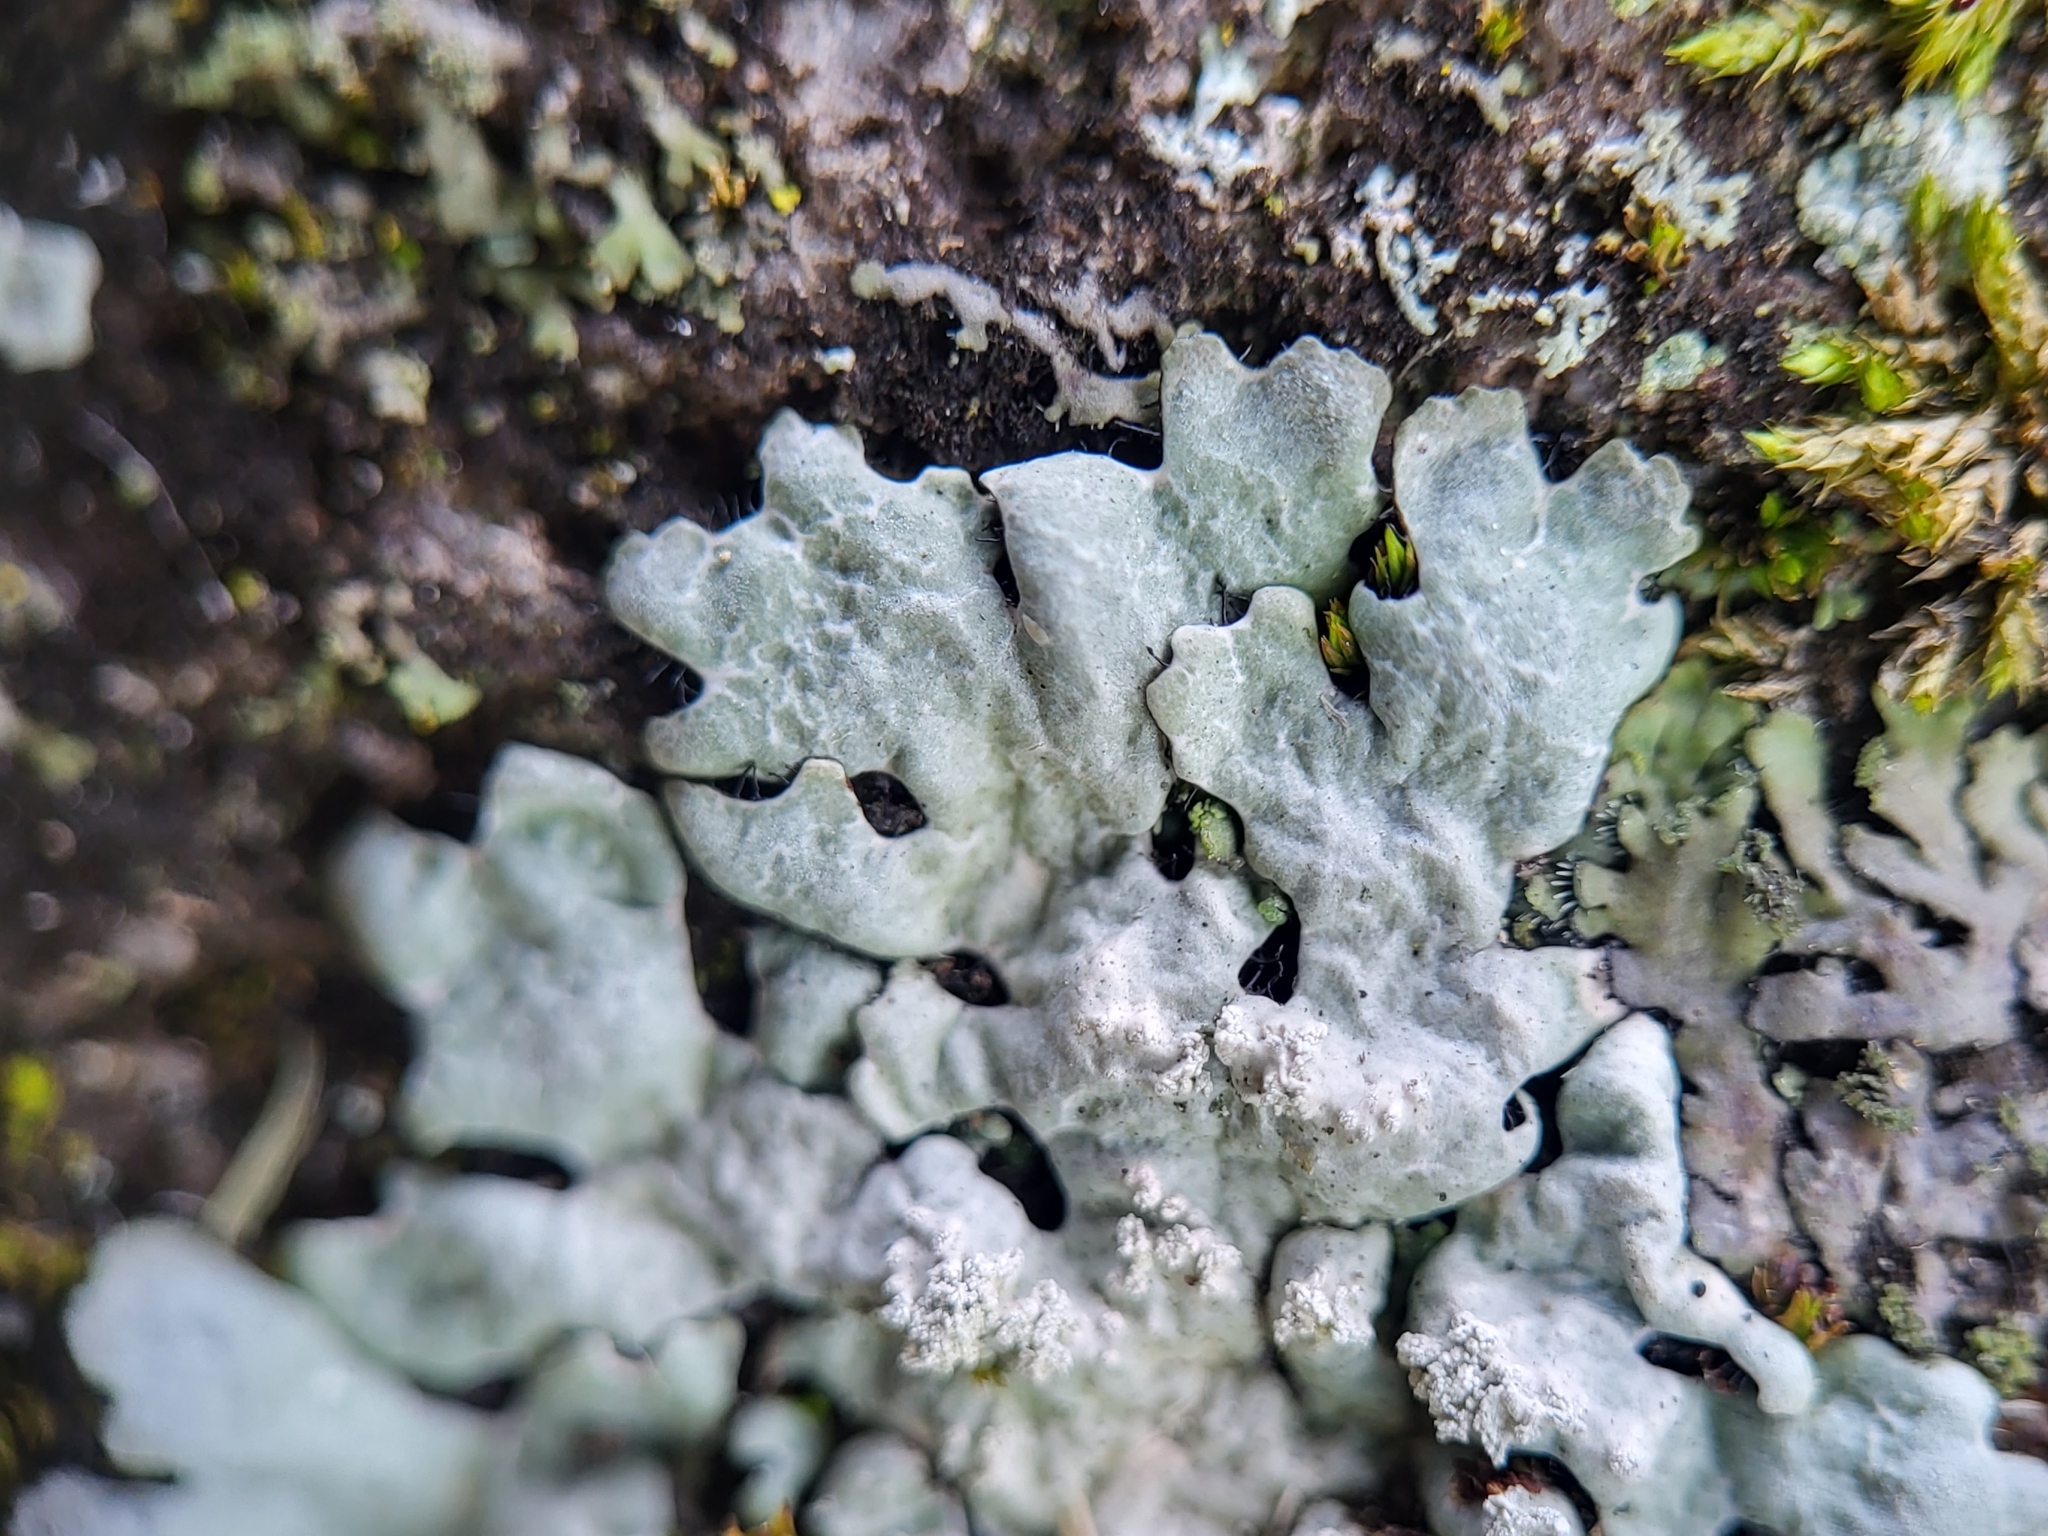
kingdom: Fungi
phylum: Ascomycota
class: Lecanoromycetes
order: Lecanorales
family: Parmeliaceae
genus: Myelochroa
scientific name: Myelochroa aurulenta
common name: Powdery axil-bristle lichen
